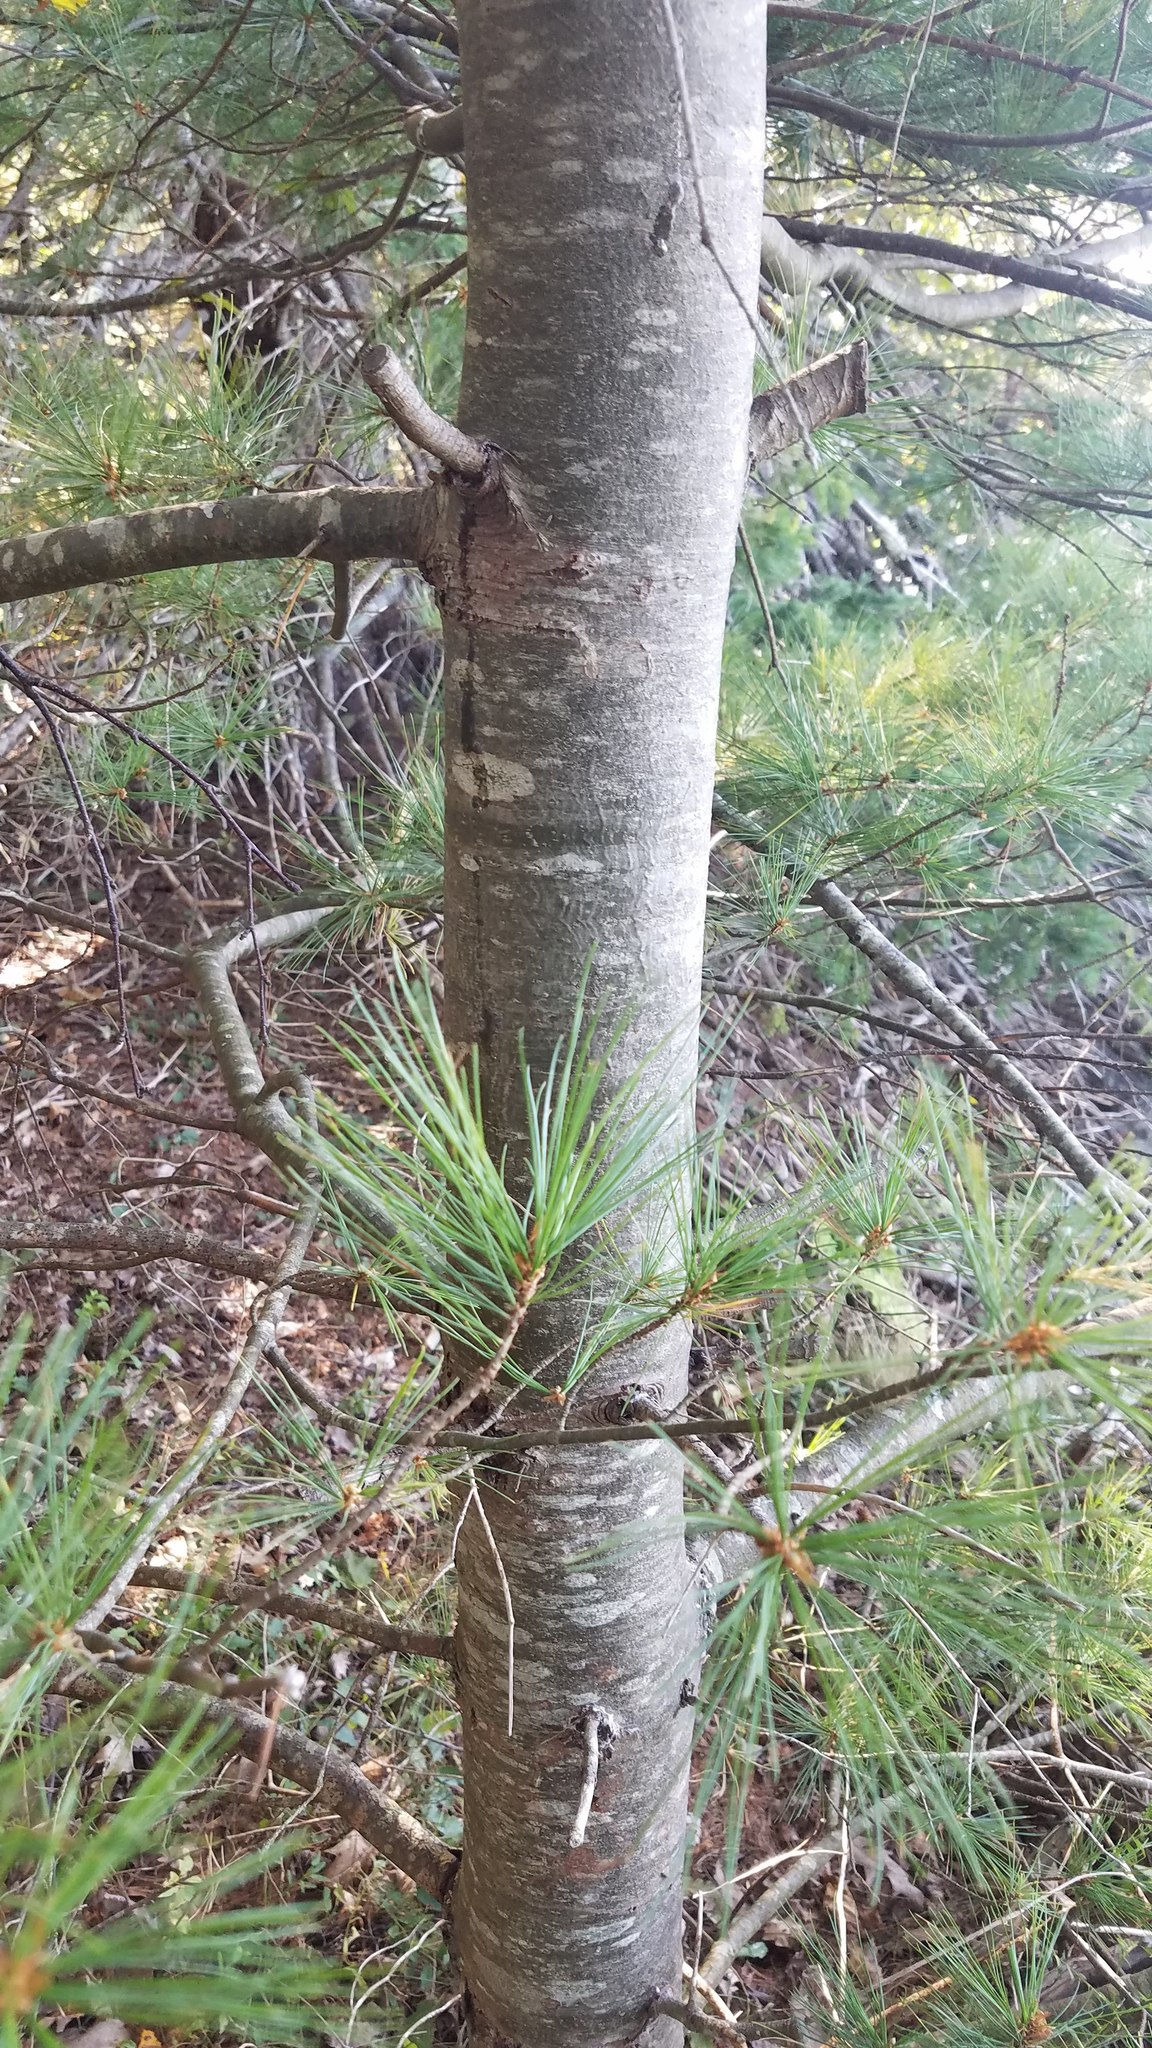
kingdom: Plantae
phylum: Tracheophyta
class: Pinopsida
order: Pinales
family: Pinaceae
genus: Pinus
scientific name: Pinus strobus
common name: Weymouth pine
